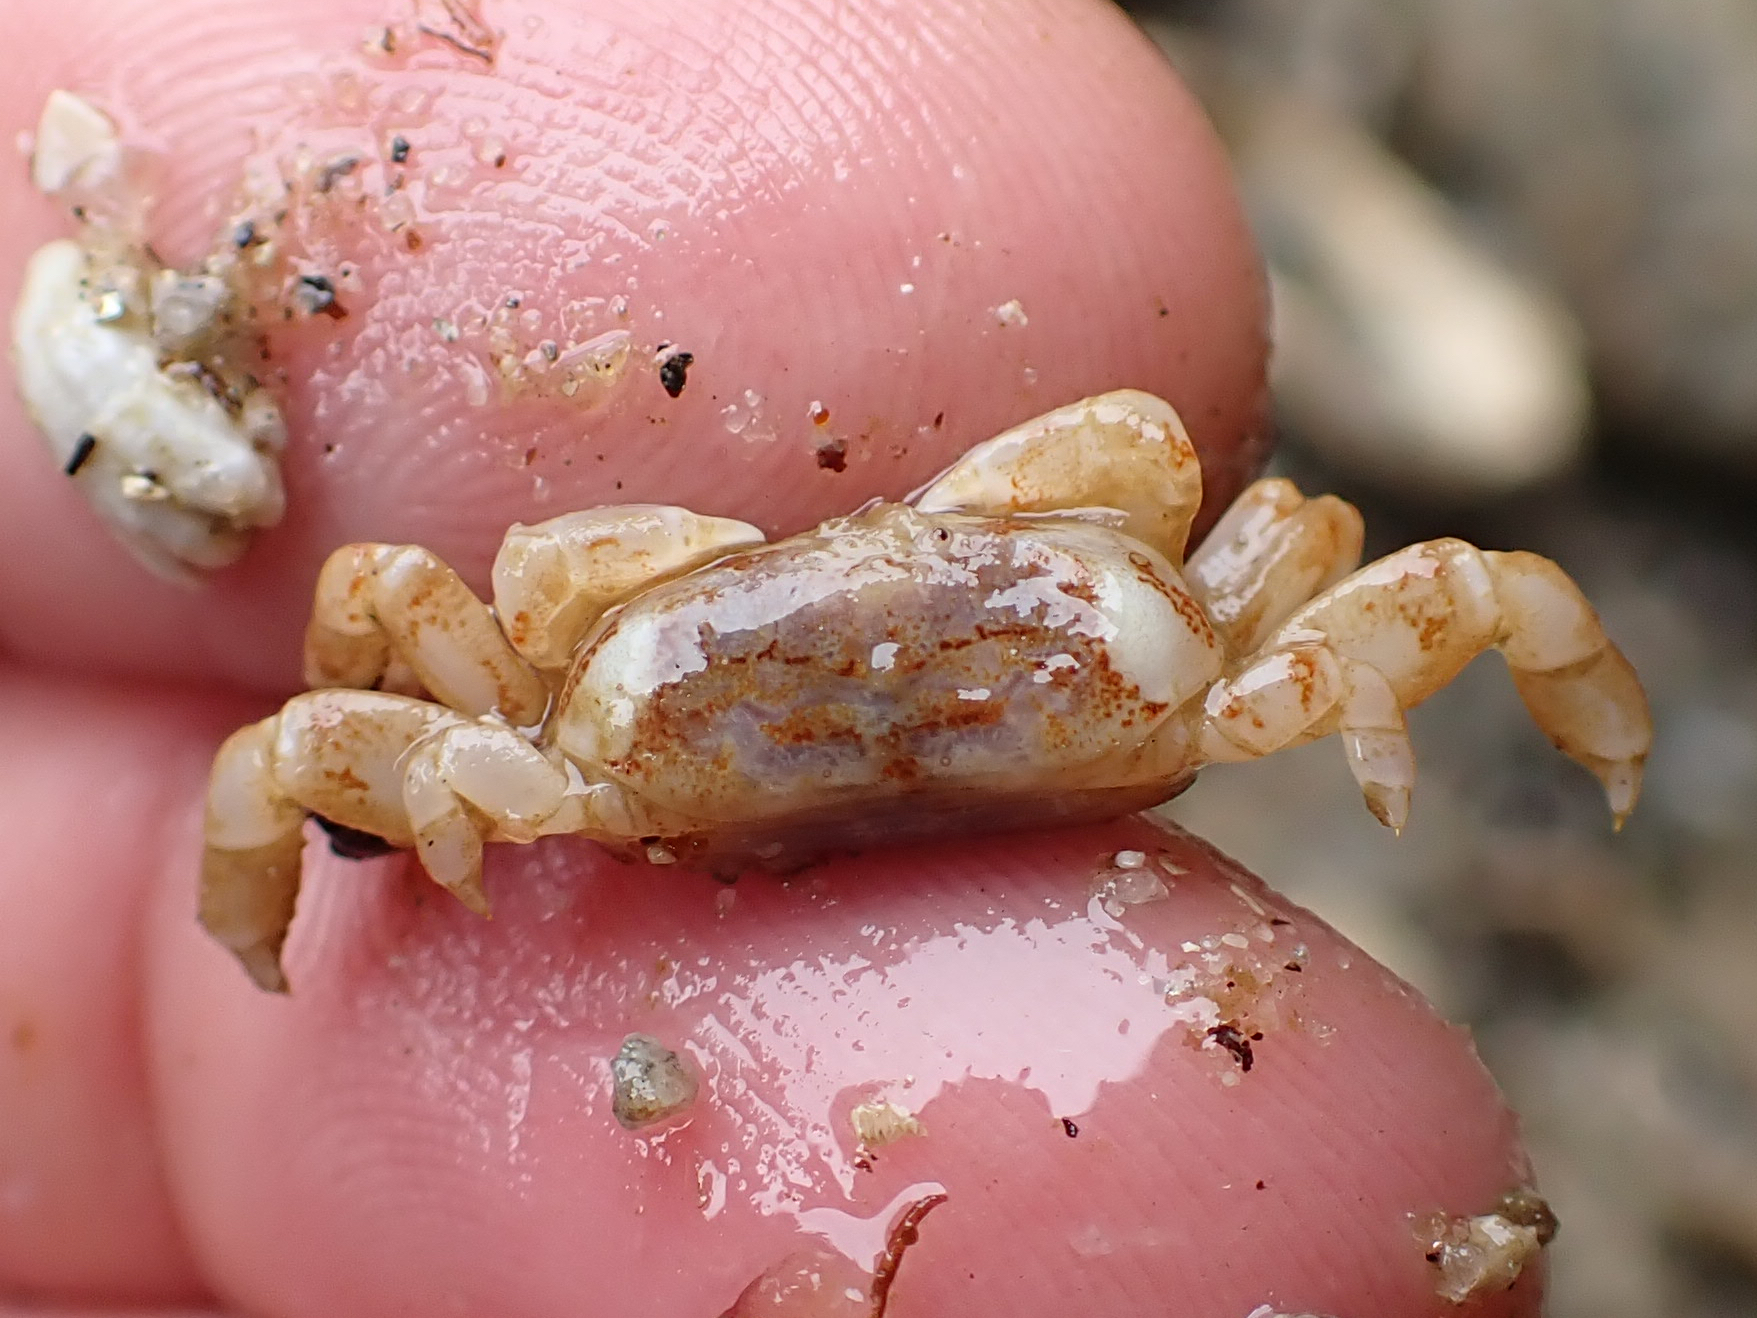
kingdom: Animalia
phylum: Arthropoda
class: Malacostraca
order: Decapoda
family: Pinnotheridae
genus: Scleroplax
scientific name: Scleroplax tubicola
